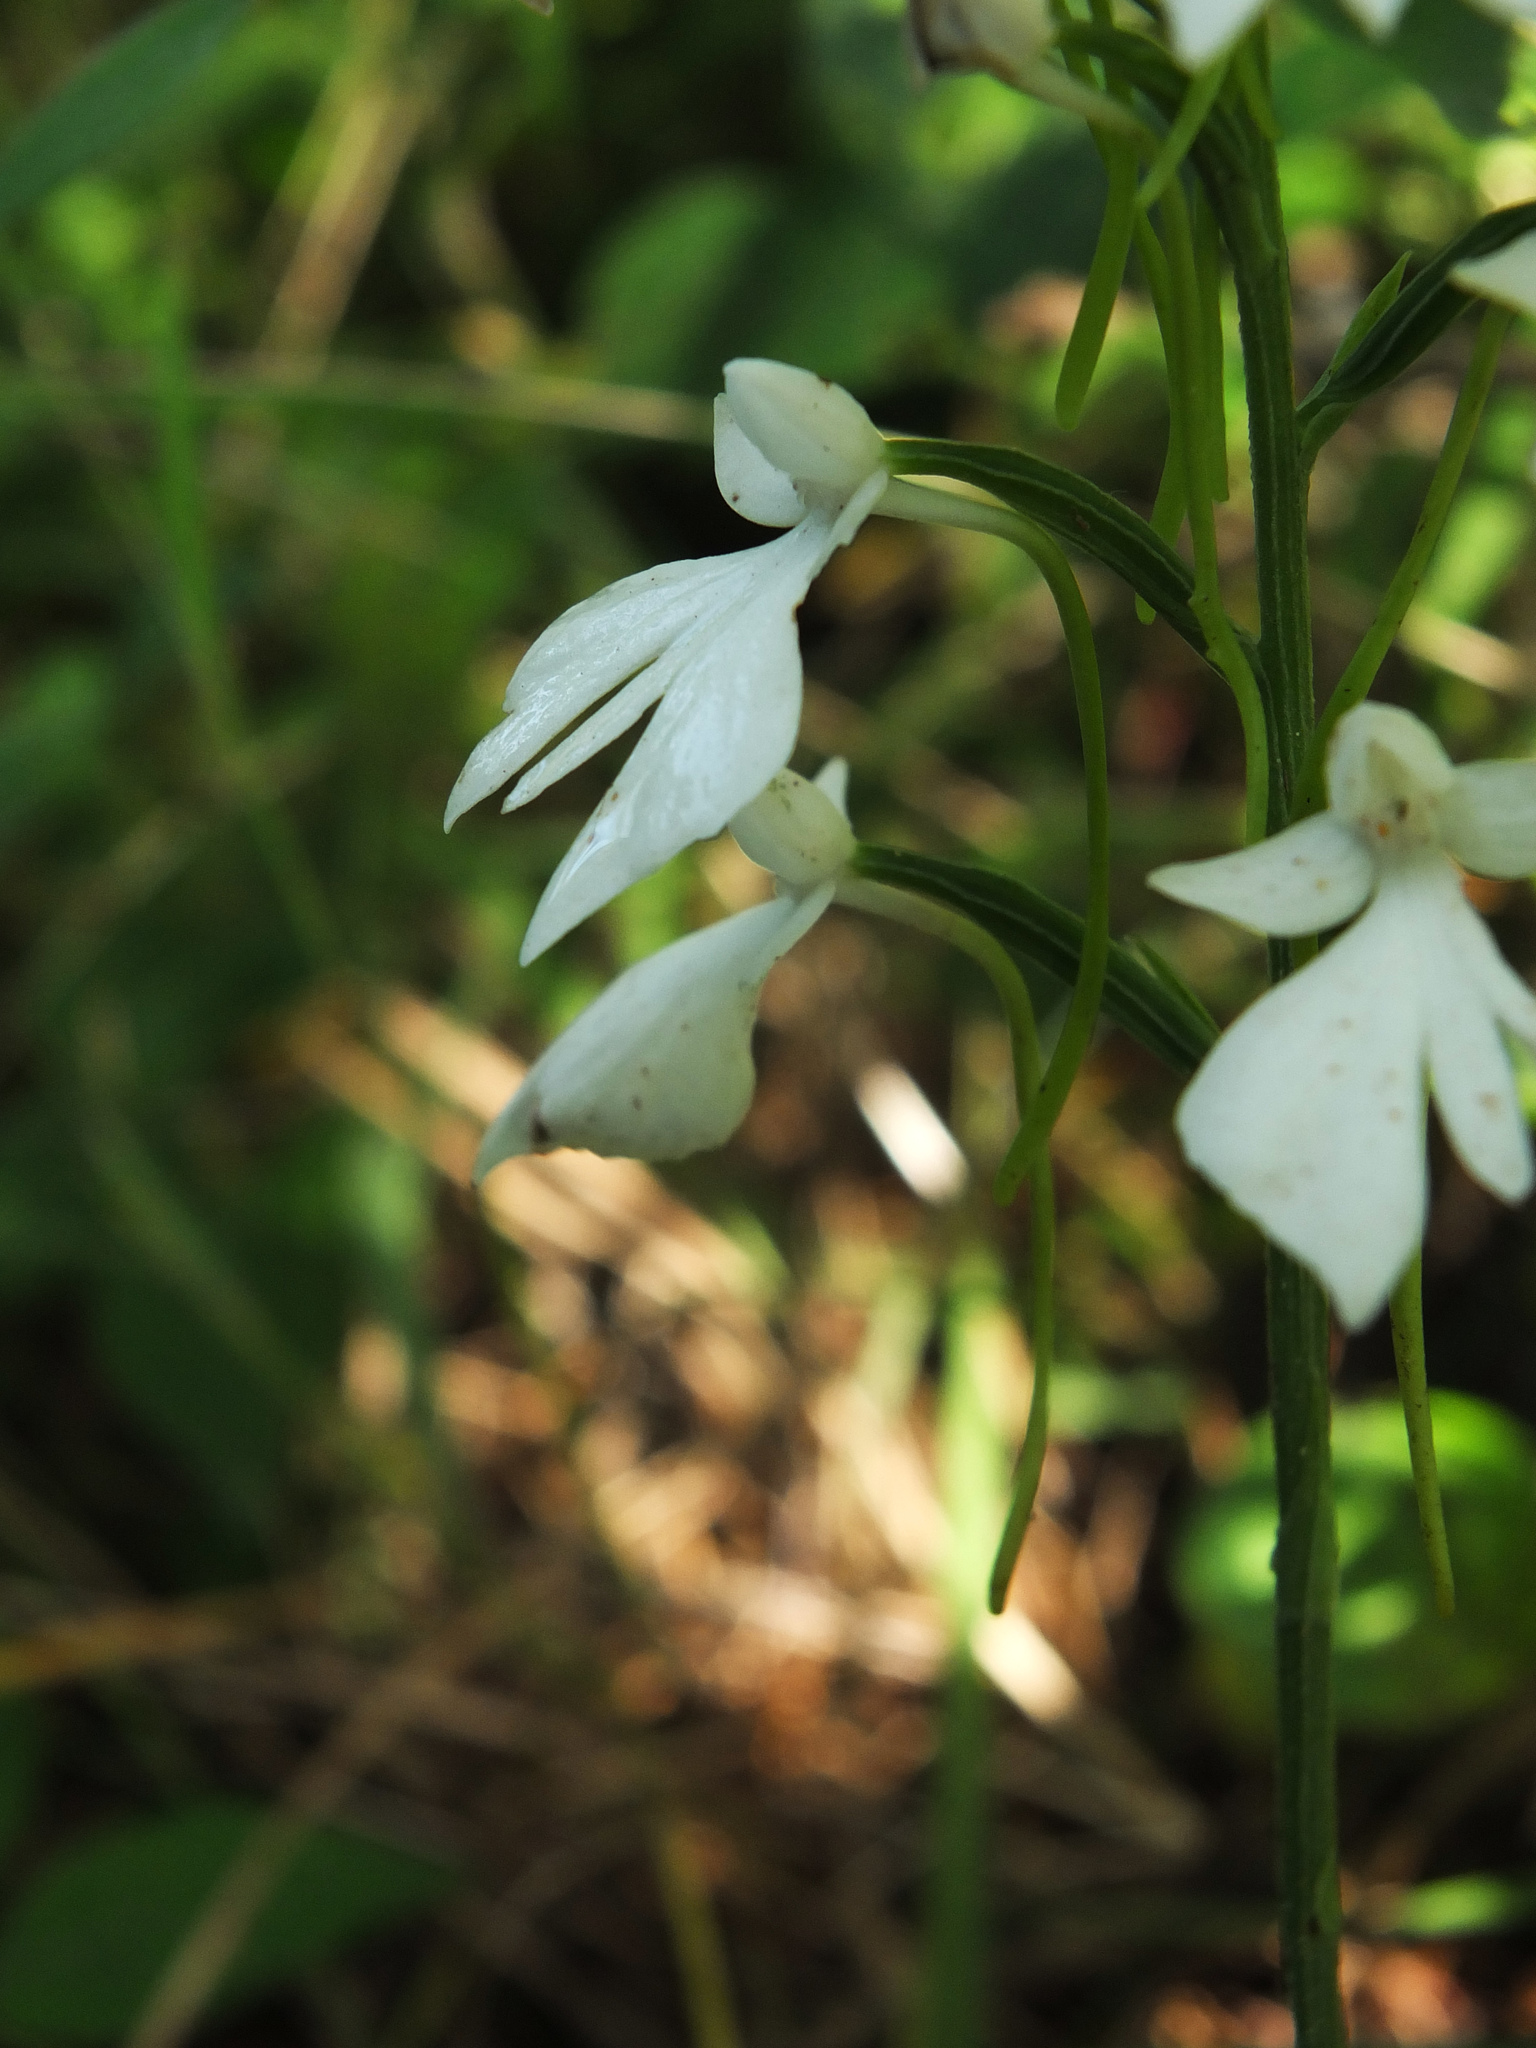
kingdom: Plantae
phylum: Tracheophyta
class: Liliopsida
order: Asparagales
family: Orchidaceae
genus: Habenaria
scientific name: Habenaria plantaginea
